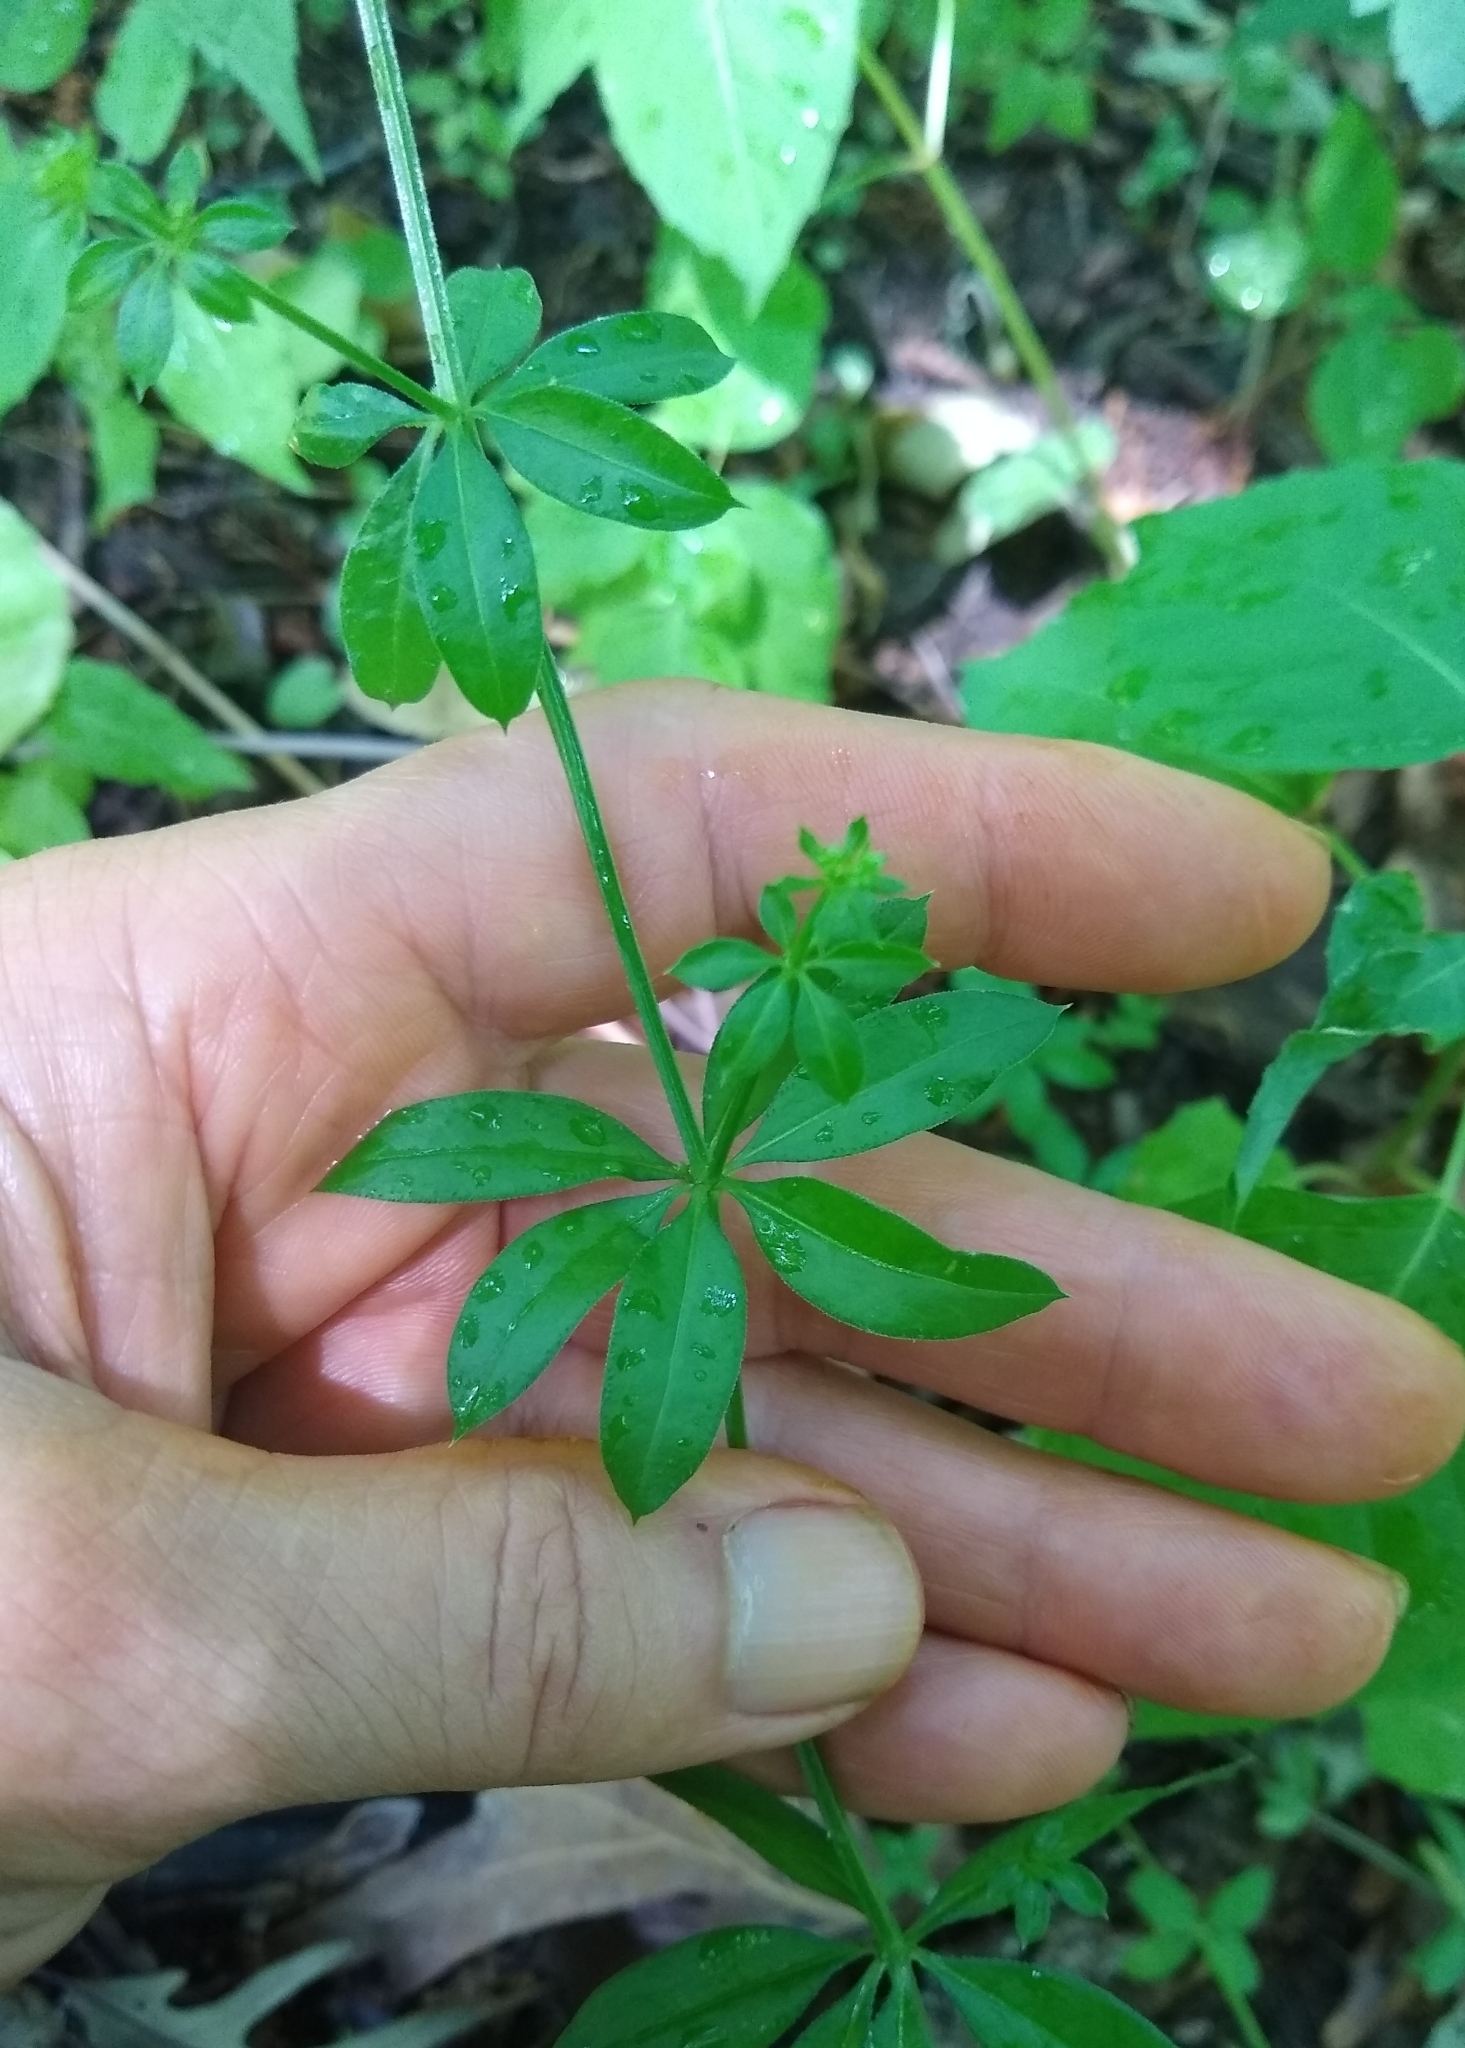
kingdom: Plantae
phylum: Tracheophyta
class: Magnoliopsida
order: Gentianales
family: Rubiaceae
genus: Galium
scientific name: Galium triflorum
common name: Fragrant bedstraw
